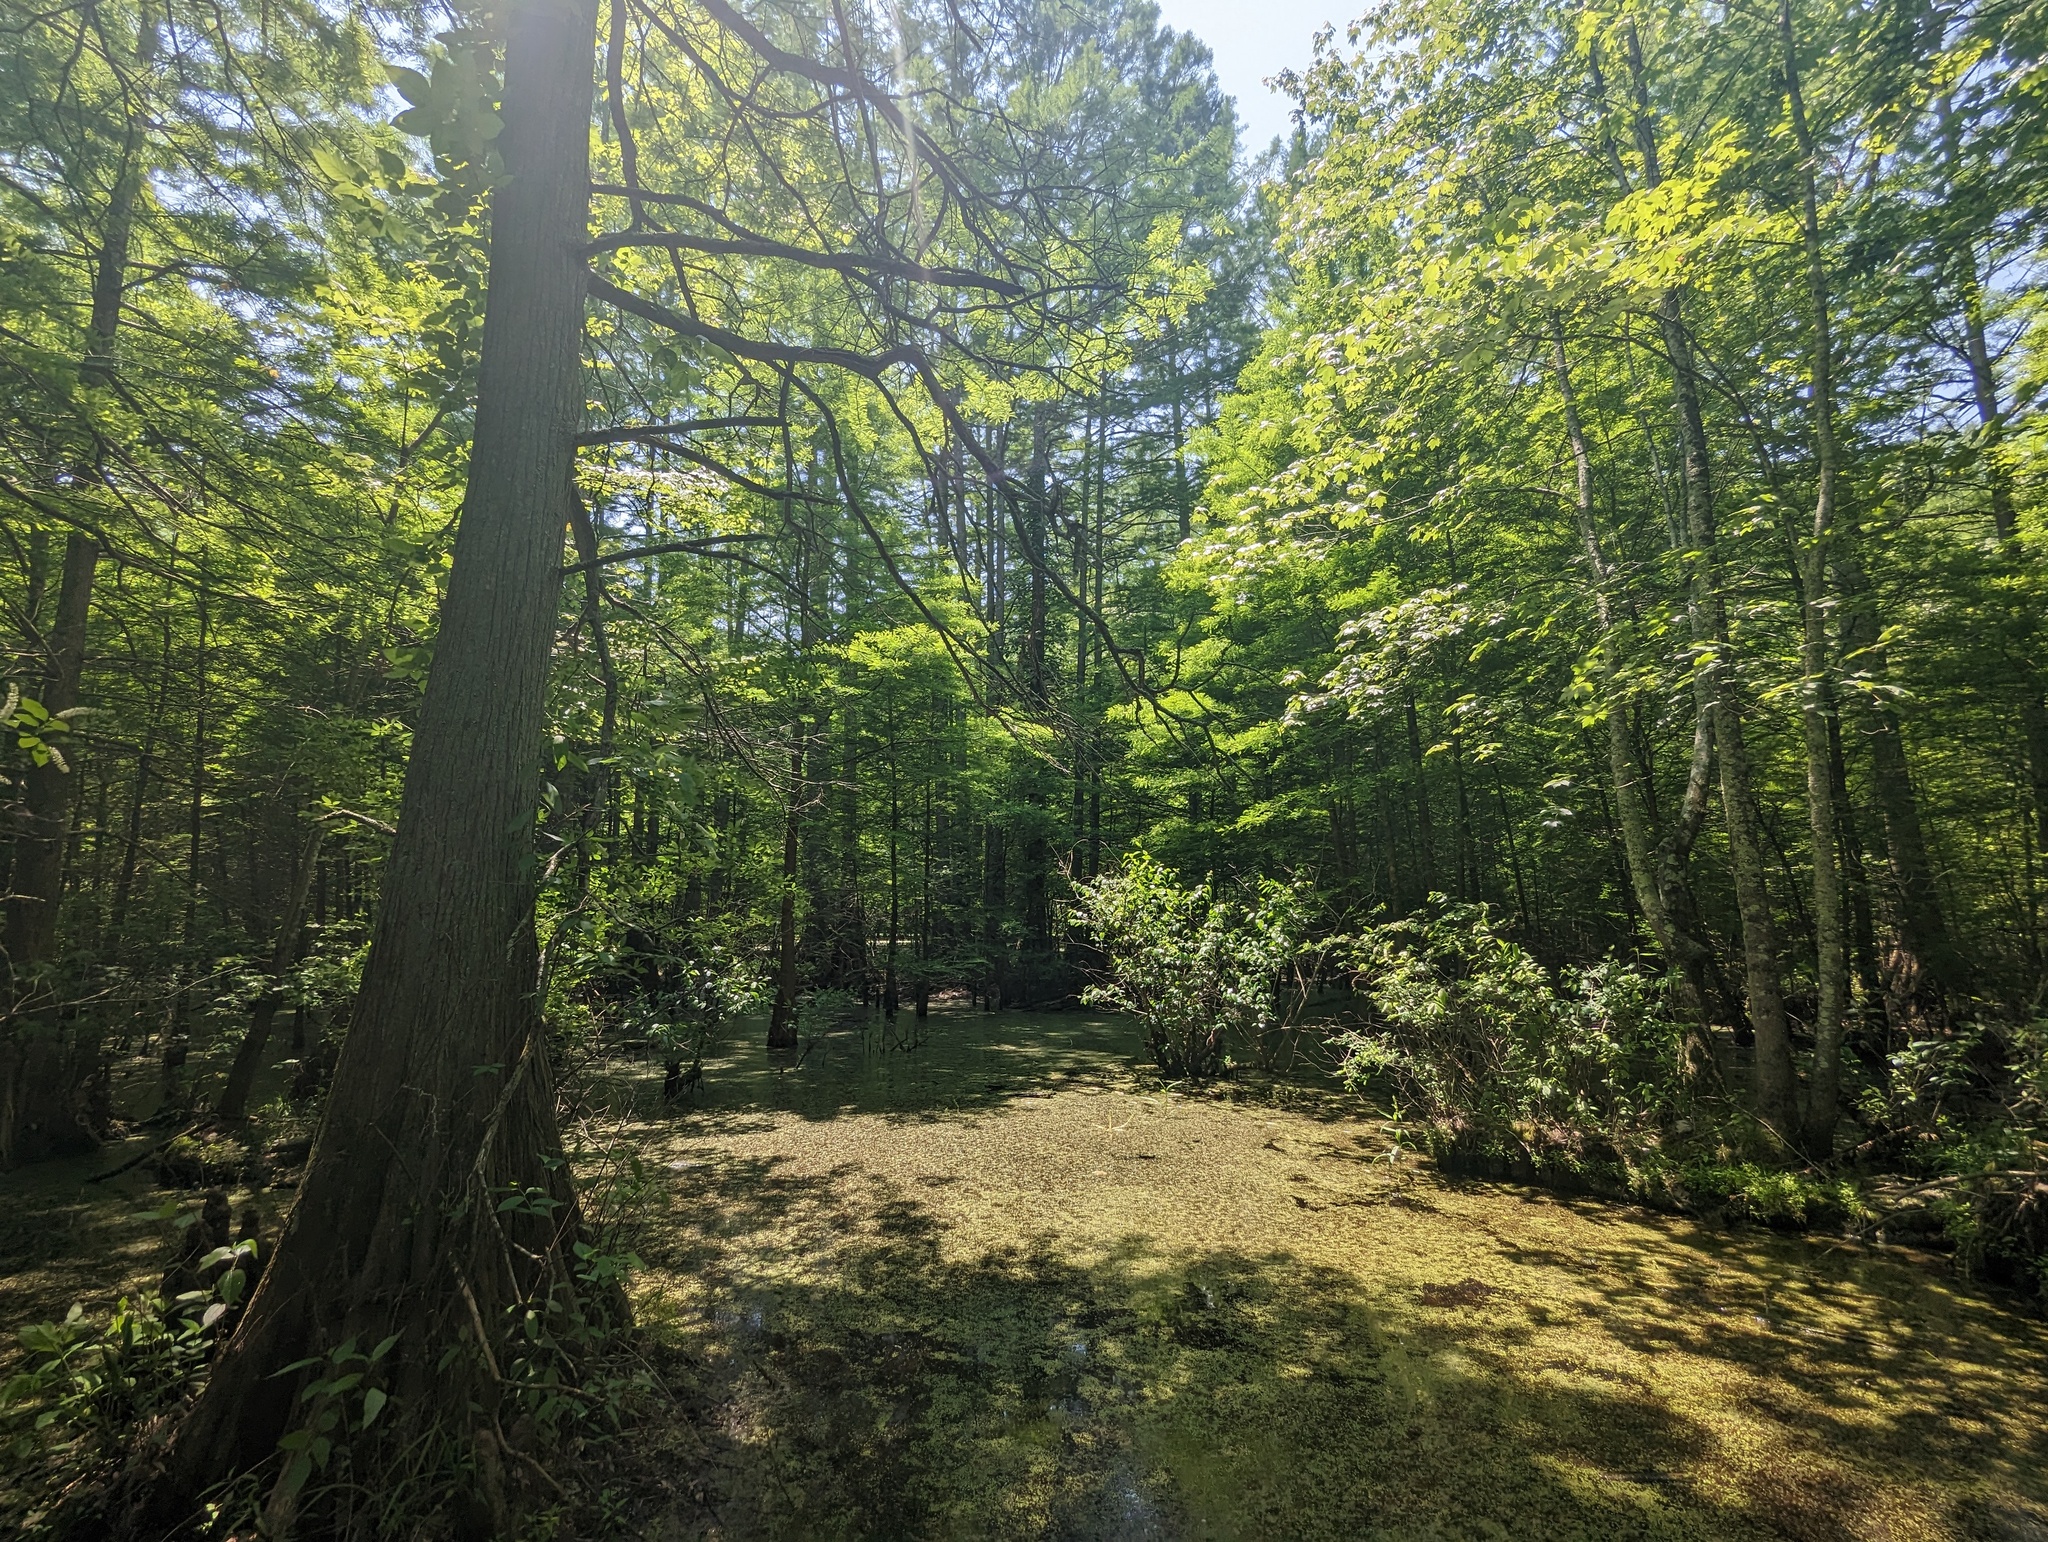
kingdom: Plantae
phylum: Tracheophyta
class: Pinopsida
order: Pinales
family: Cupressaceae
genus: Taxodium
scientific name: Taxodium distichum
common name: Bald cypress
